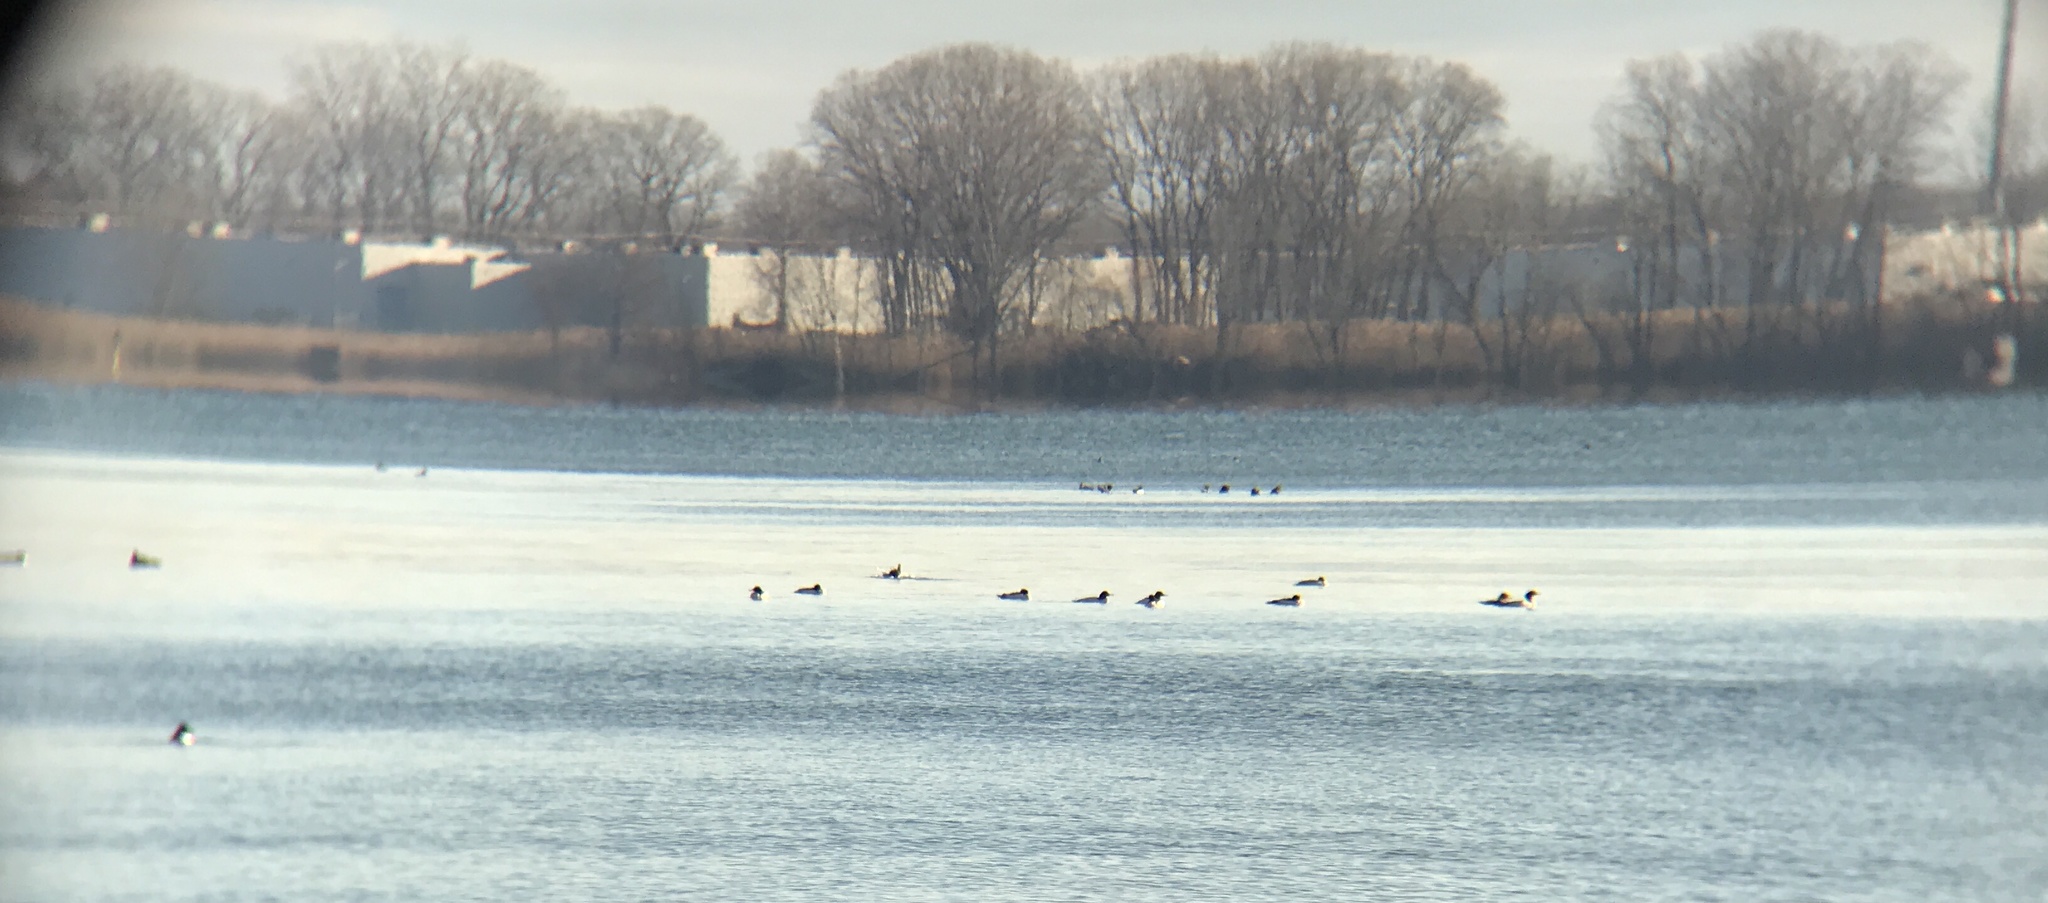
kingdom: Animalia
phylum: Chordata
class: Aves
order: Anseriformes
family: Anatidae
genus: Mergus
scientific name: Mergus merganser
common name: Common merganser
